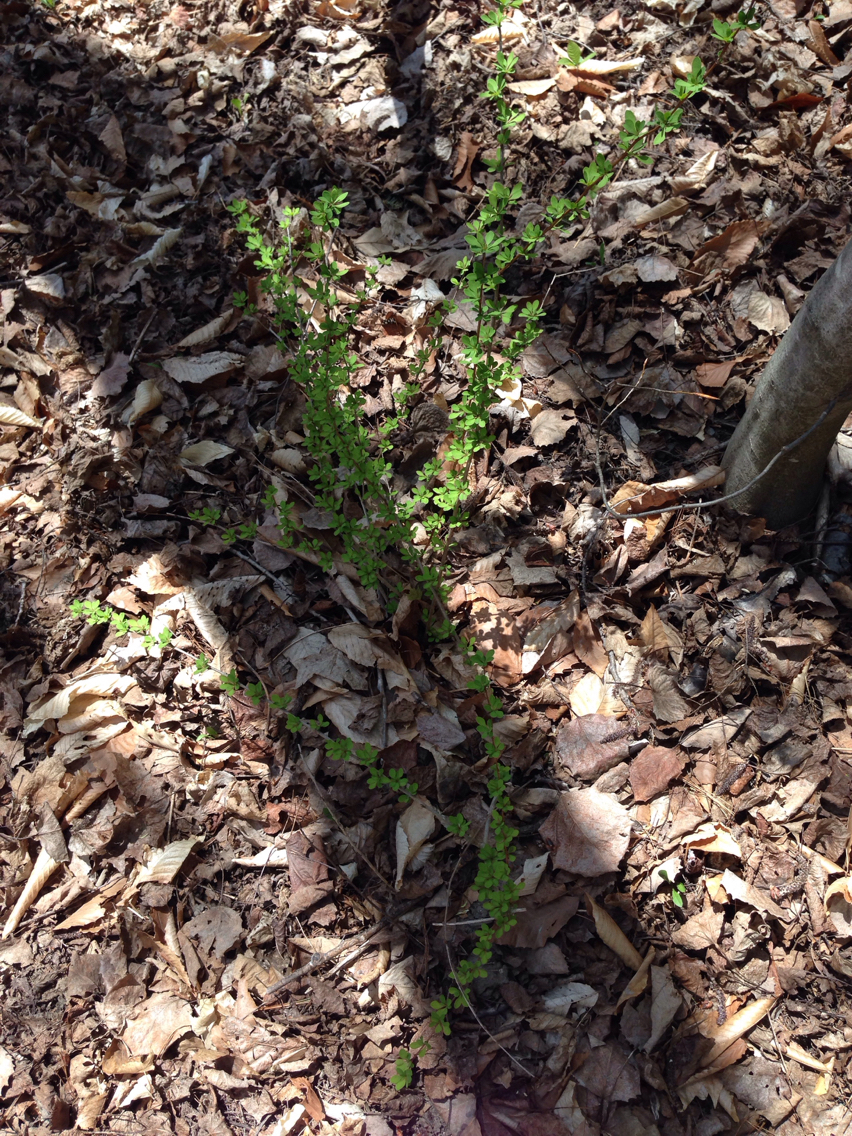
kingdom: Plantae
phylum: Tracheophyta
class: Magnoliopsida
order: Ranunculales
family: Berberidaceae
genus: Berberis
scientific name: Berberis thunbergii
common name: Japanese barberry
